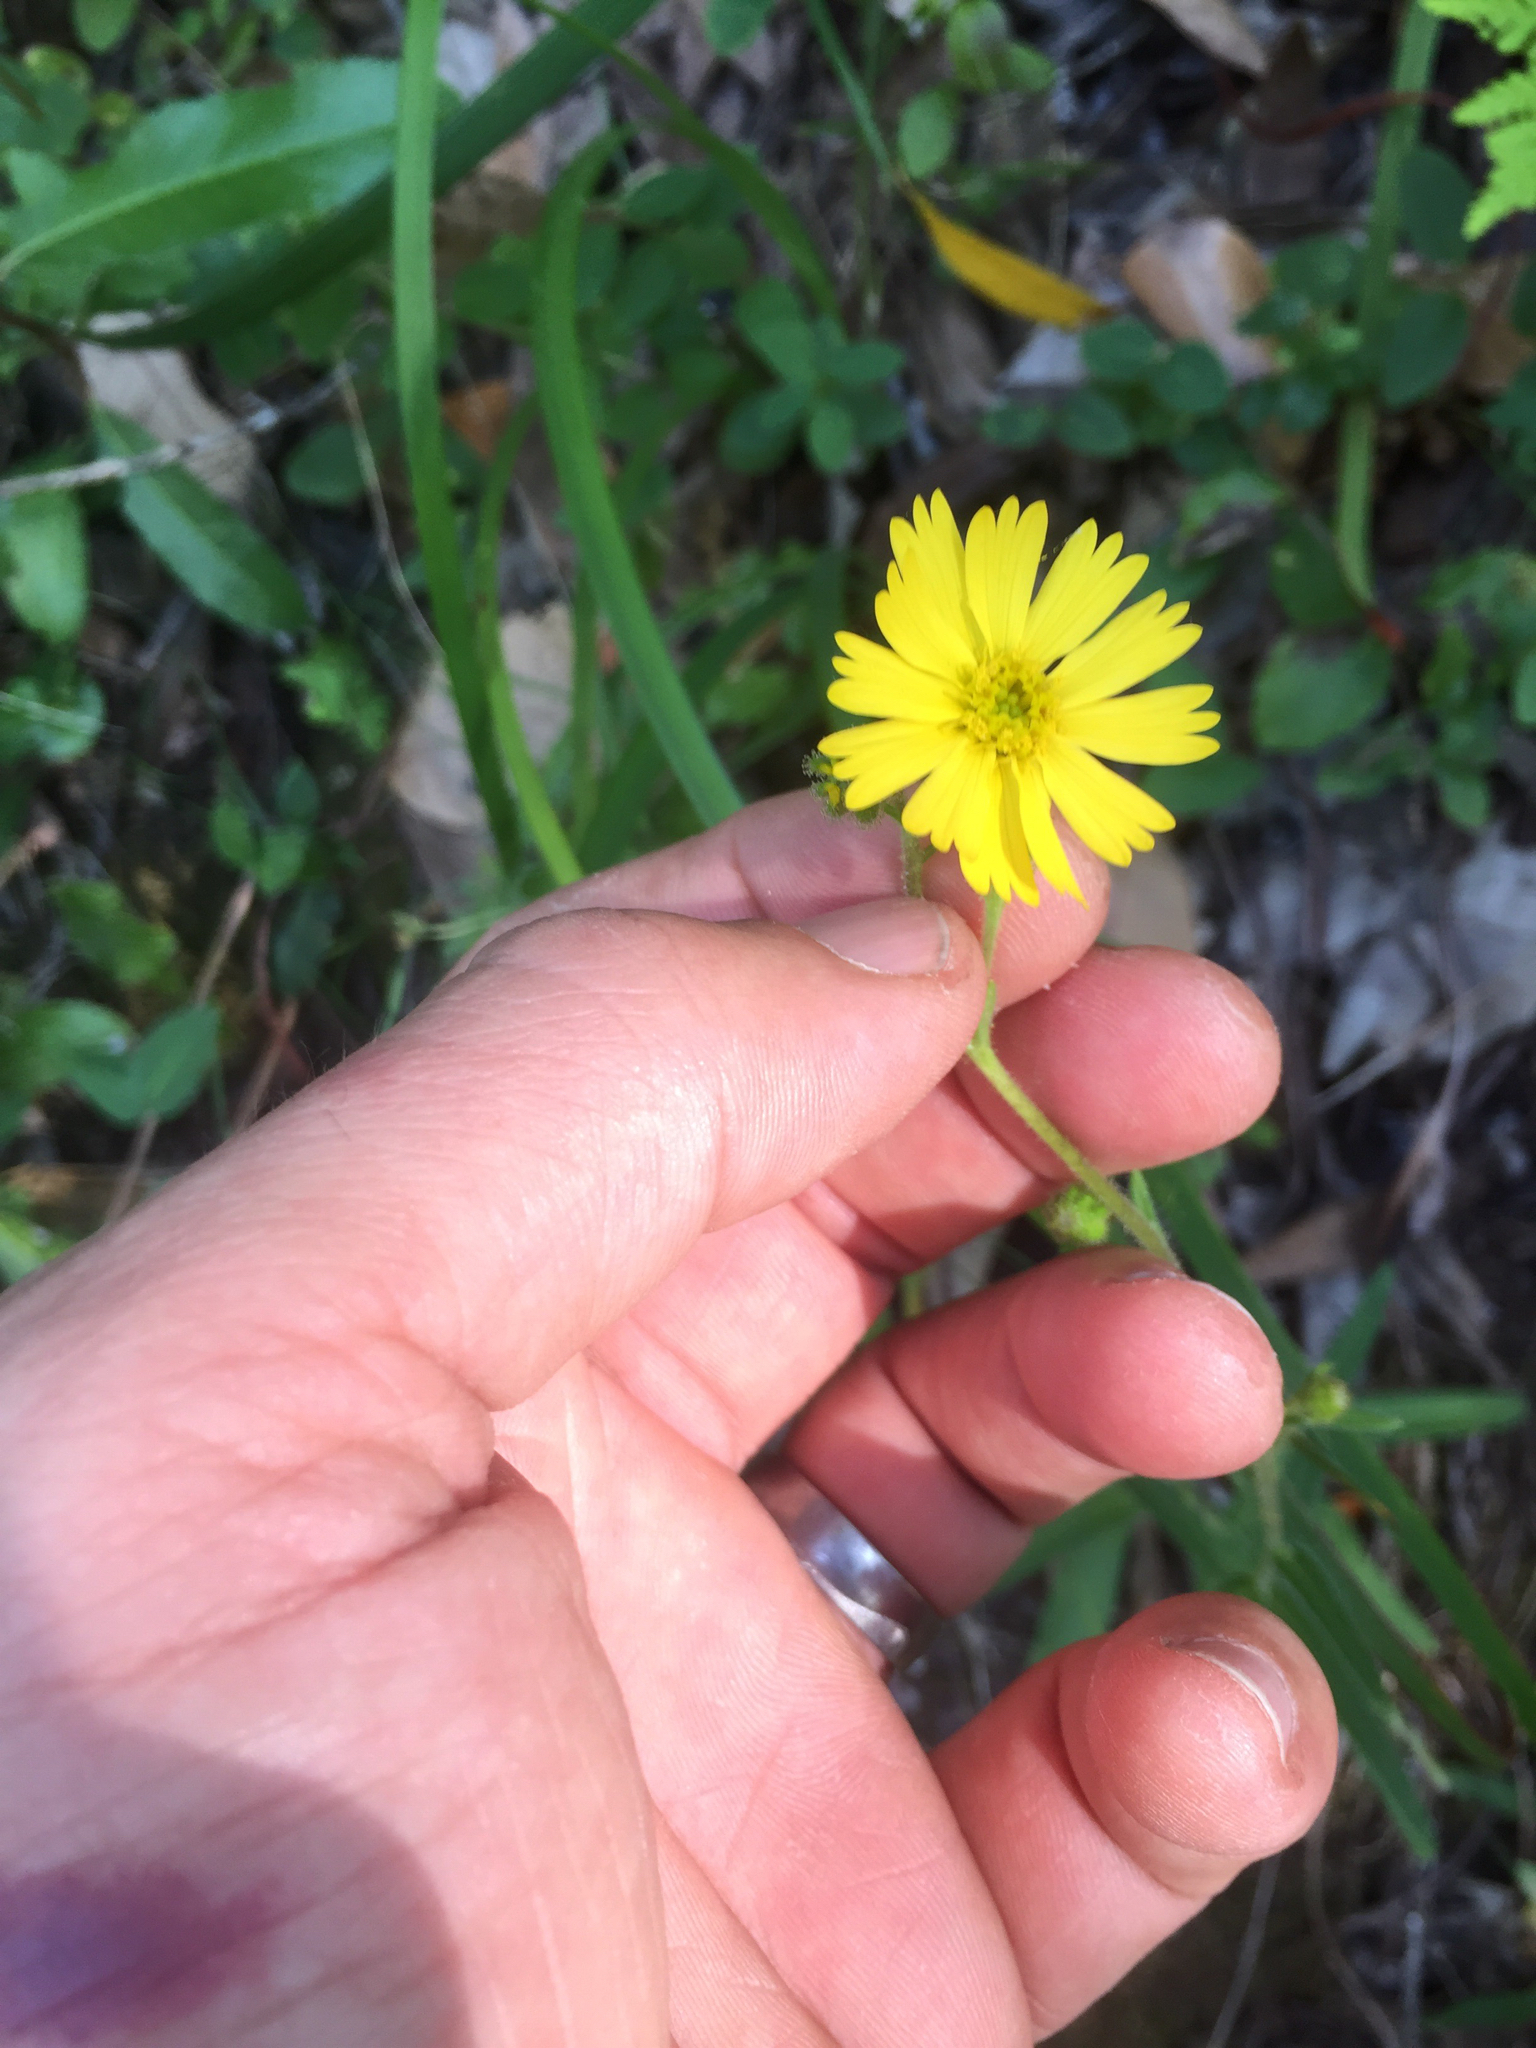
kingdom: Plantae
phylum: Tracheophyta
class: Magnoliopsida
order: Asterales
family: Asteraceae
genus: Anisocarpus
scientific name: Anisocarpus madioides
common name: Woodland madia
